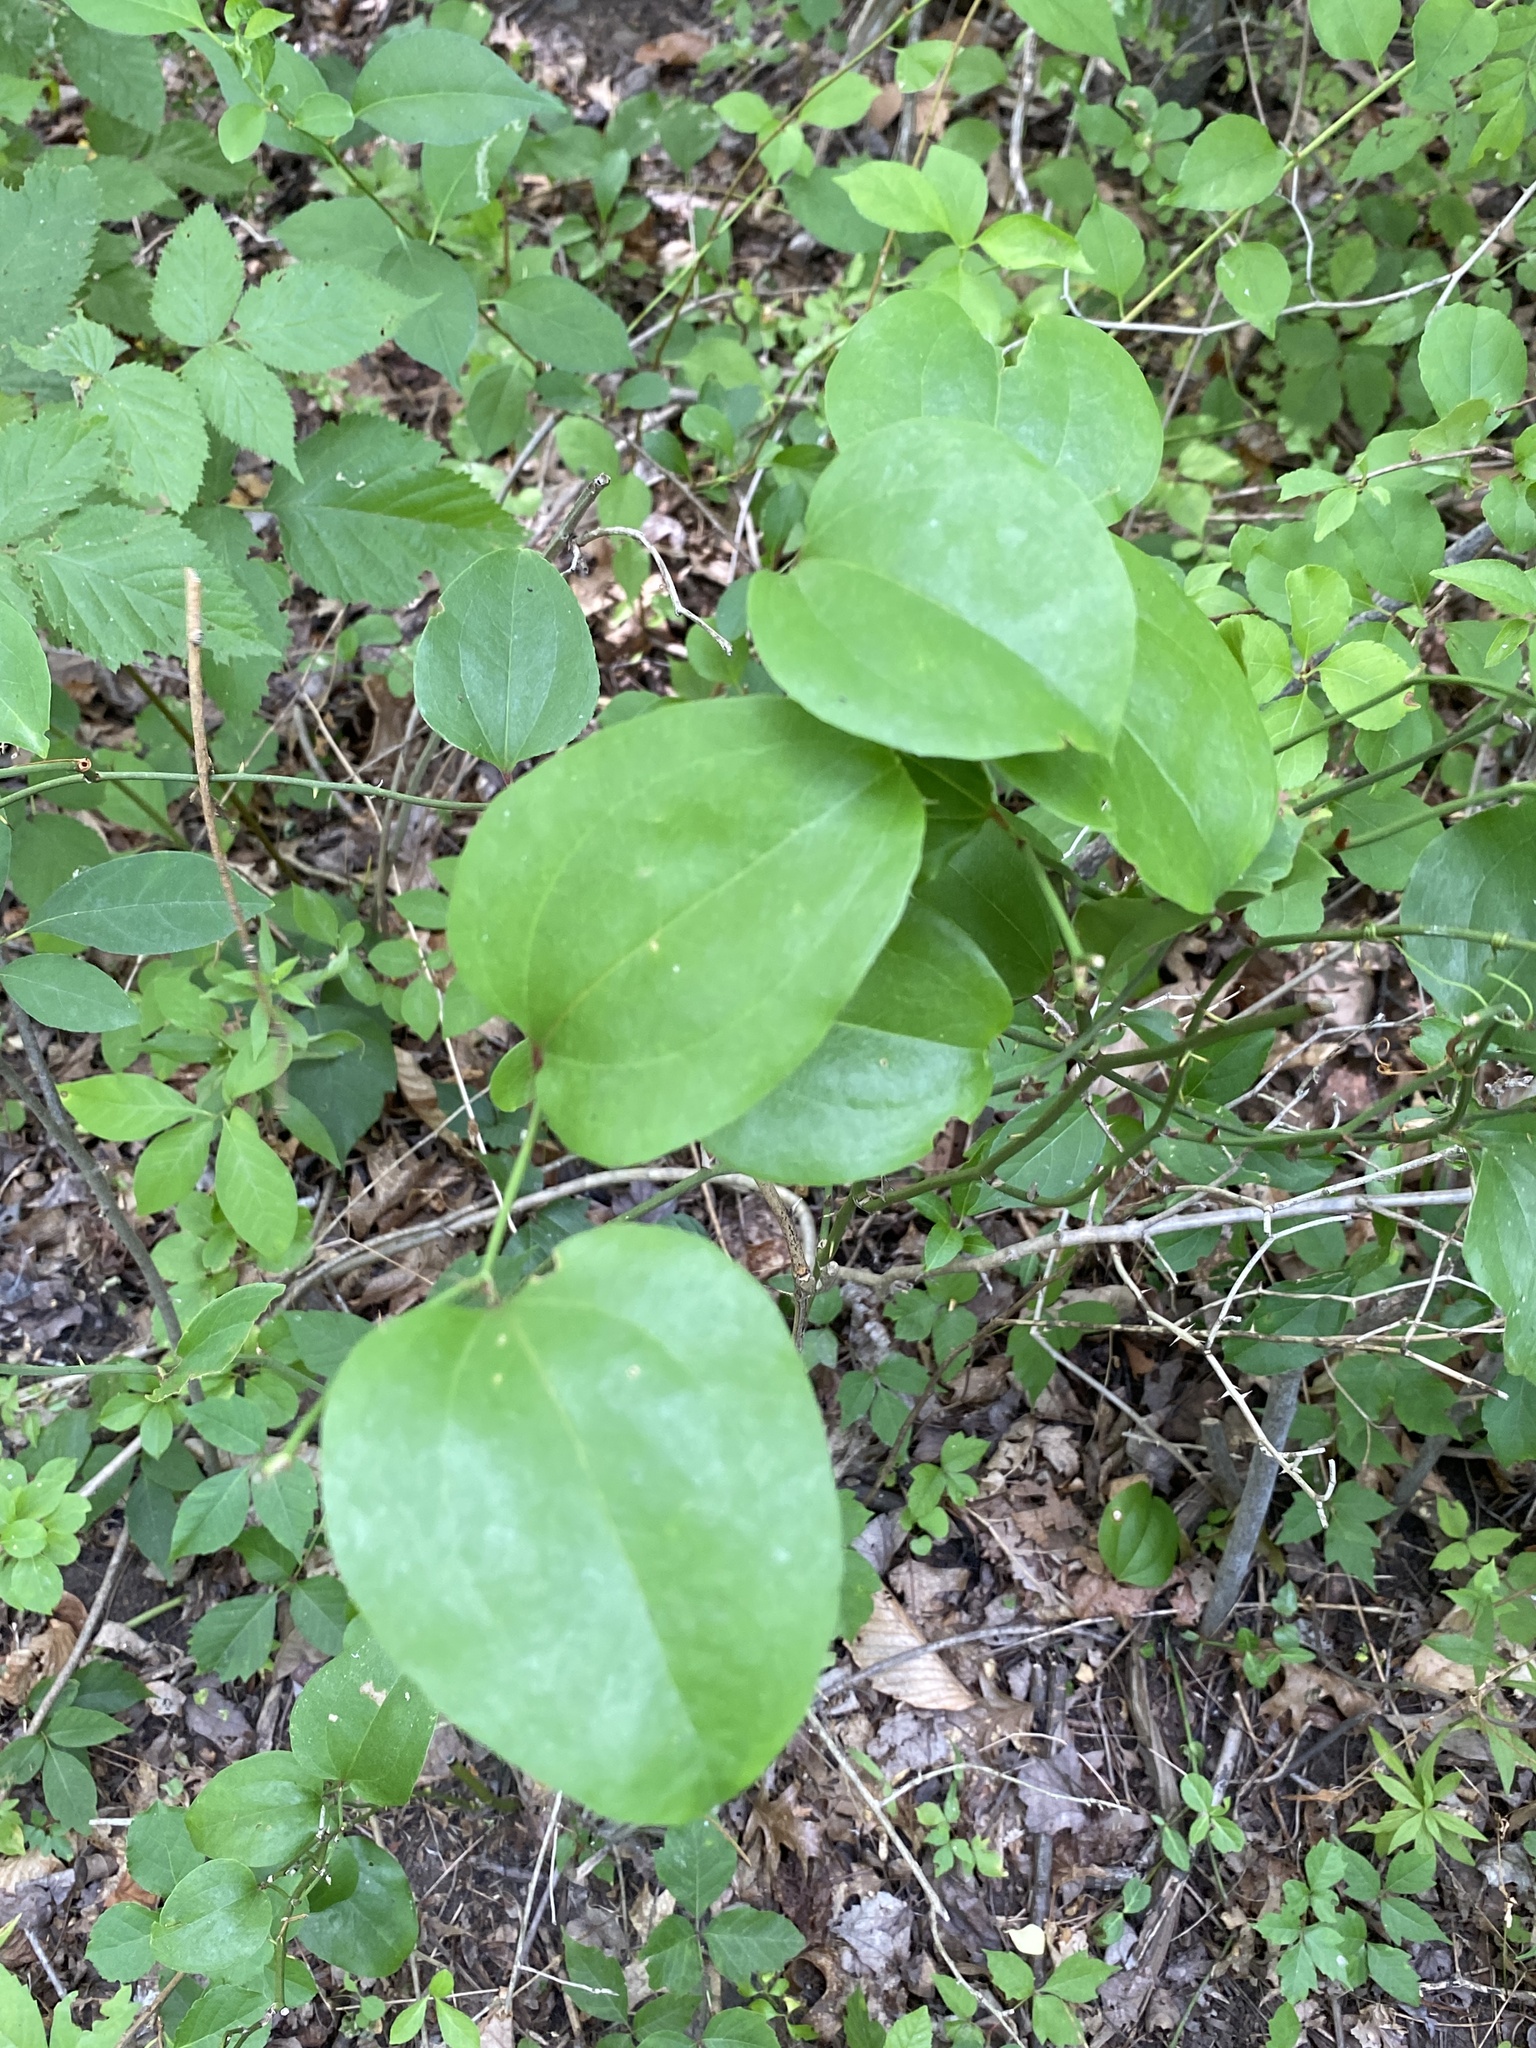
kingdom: Plantae
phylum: Tracheophyta
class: Liliopsida
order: Liliales
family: Smilacaceae
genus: Smilax
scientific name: Smilax rotundifolia
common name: Bullbriar
